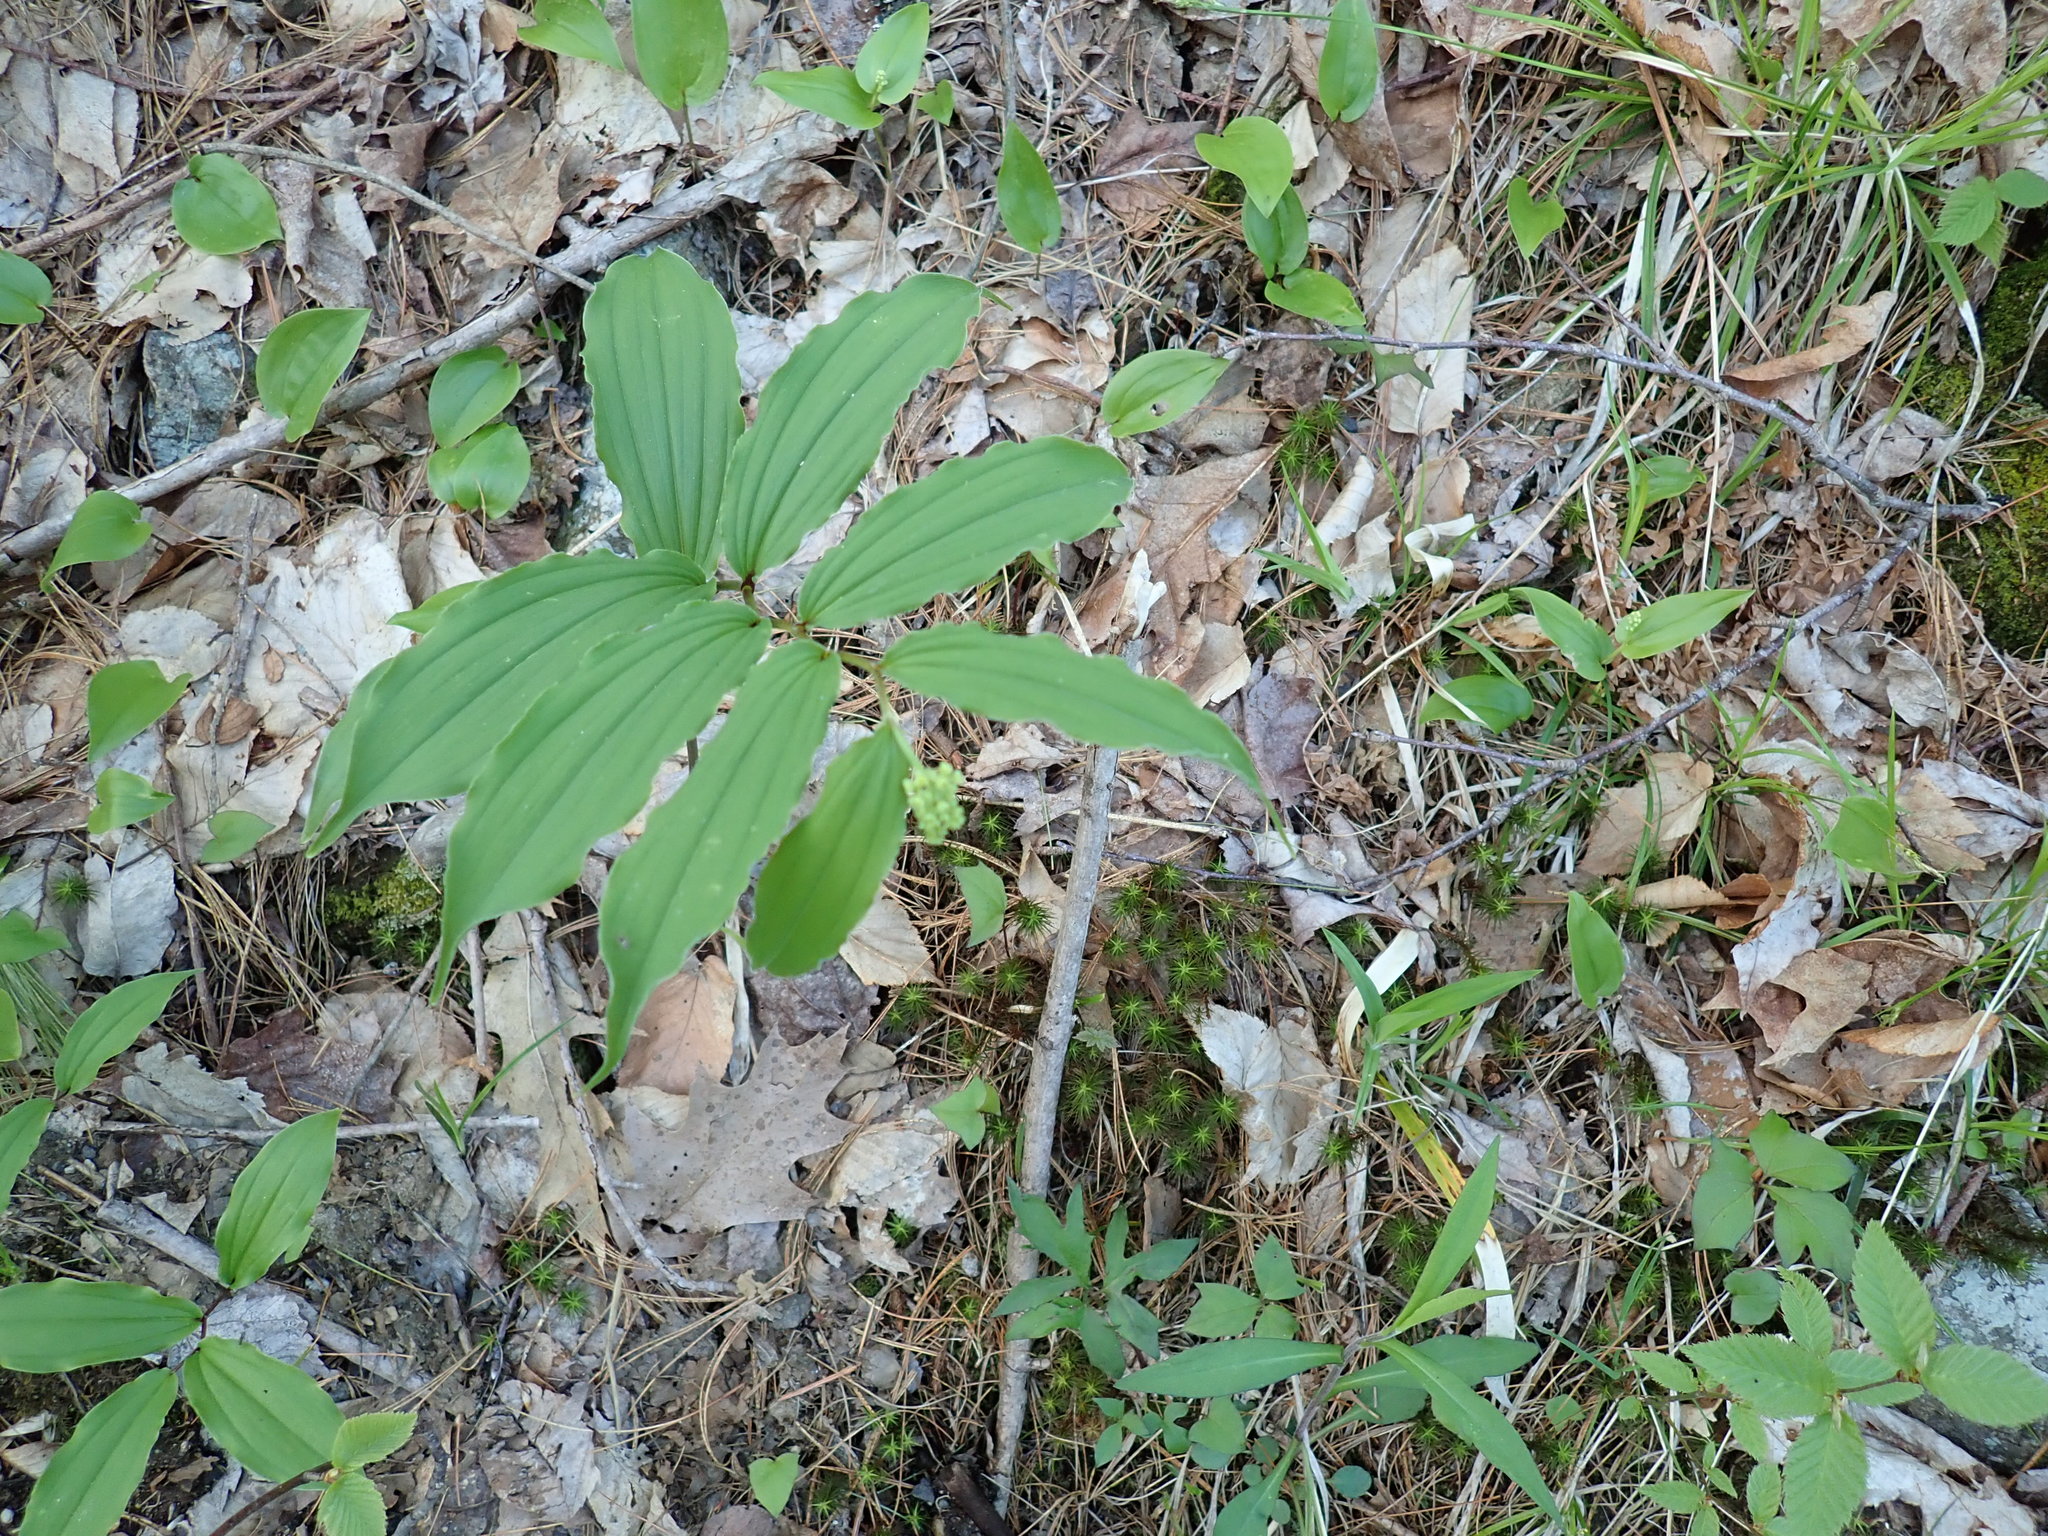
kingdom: Plantae
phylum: Tracheophyta
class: Liliopsida
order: Asparagales
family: Asparagaceae
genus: Maianthemum
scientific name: Maianthemum racemosum
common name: False spikenard
